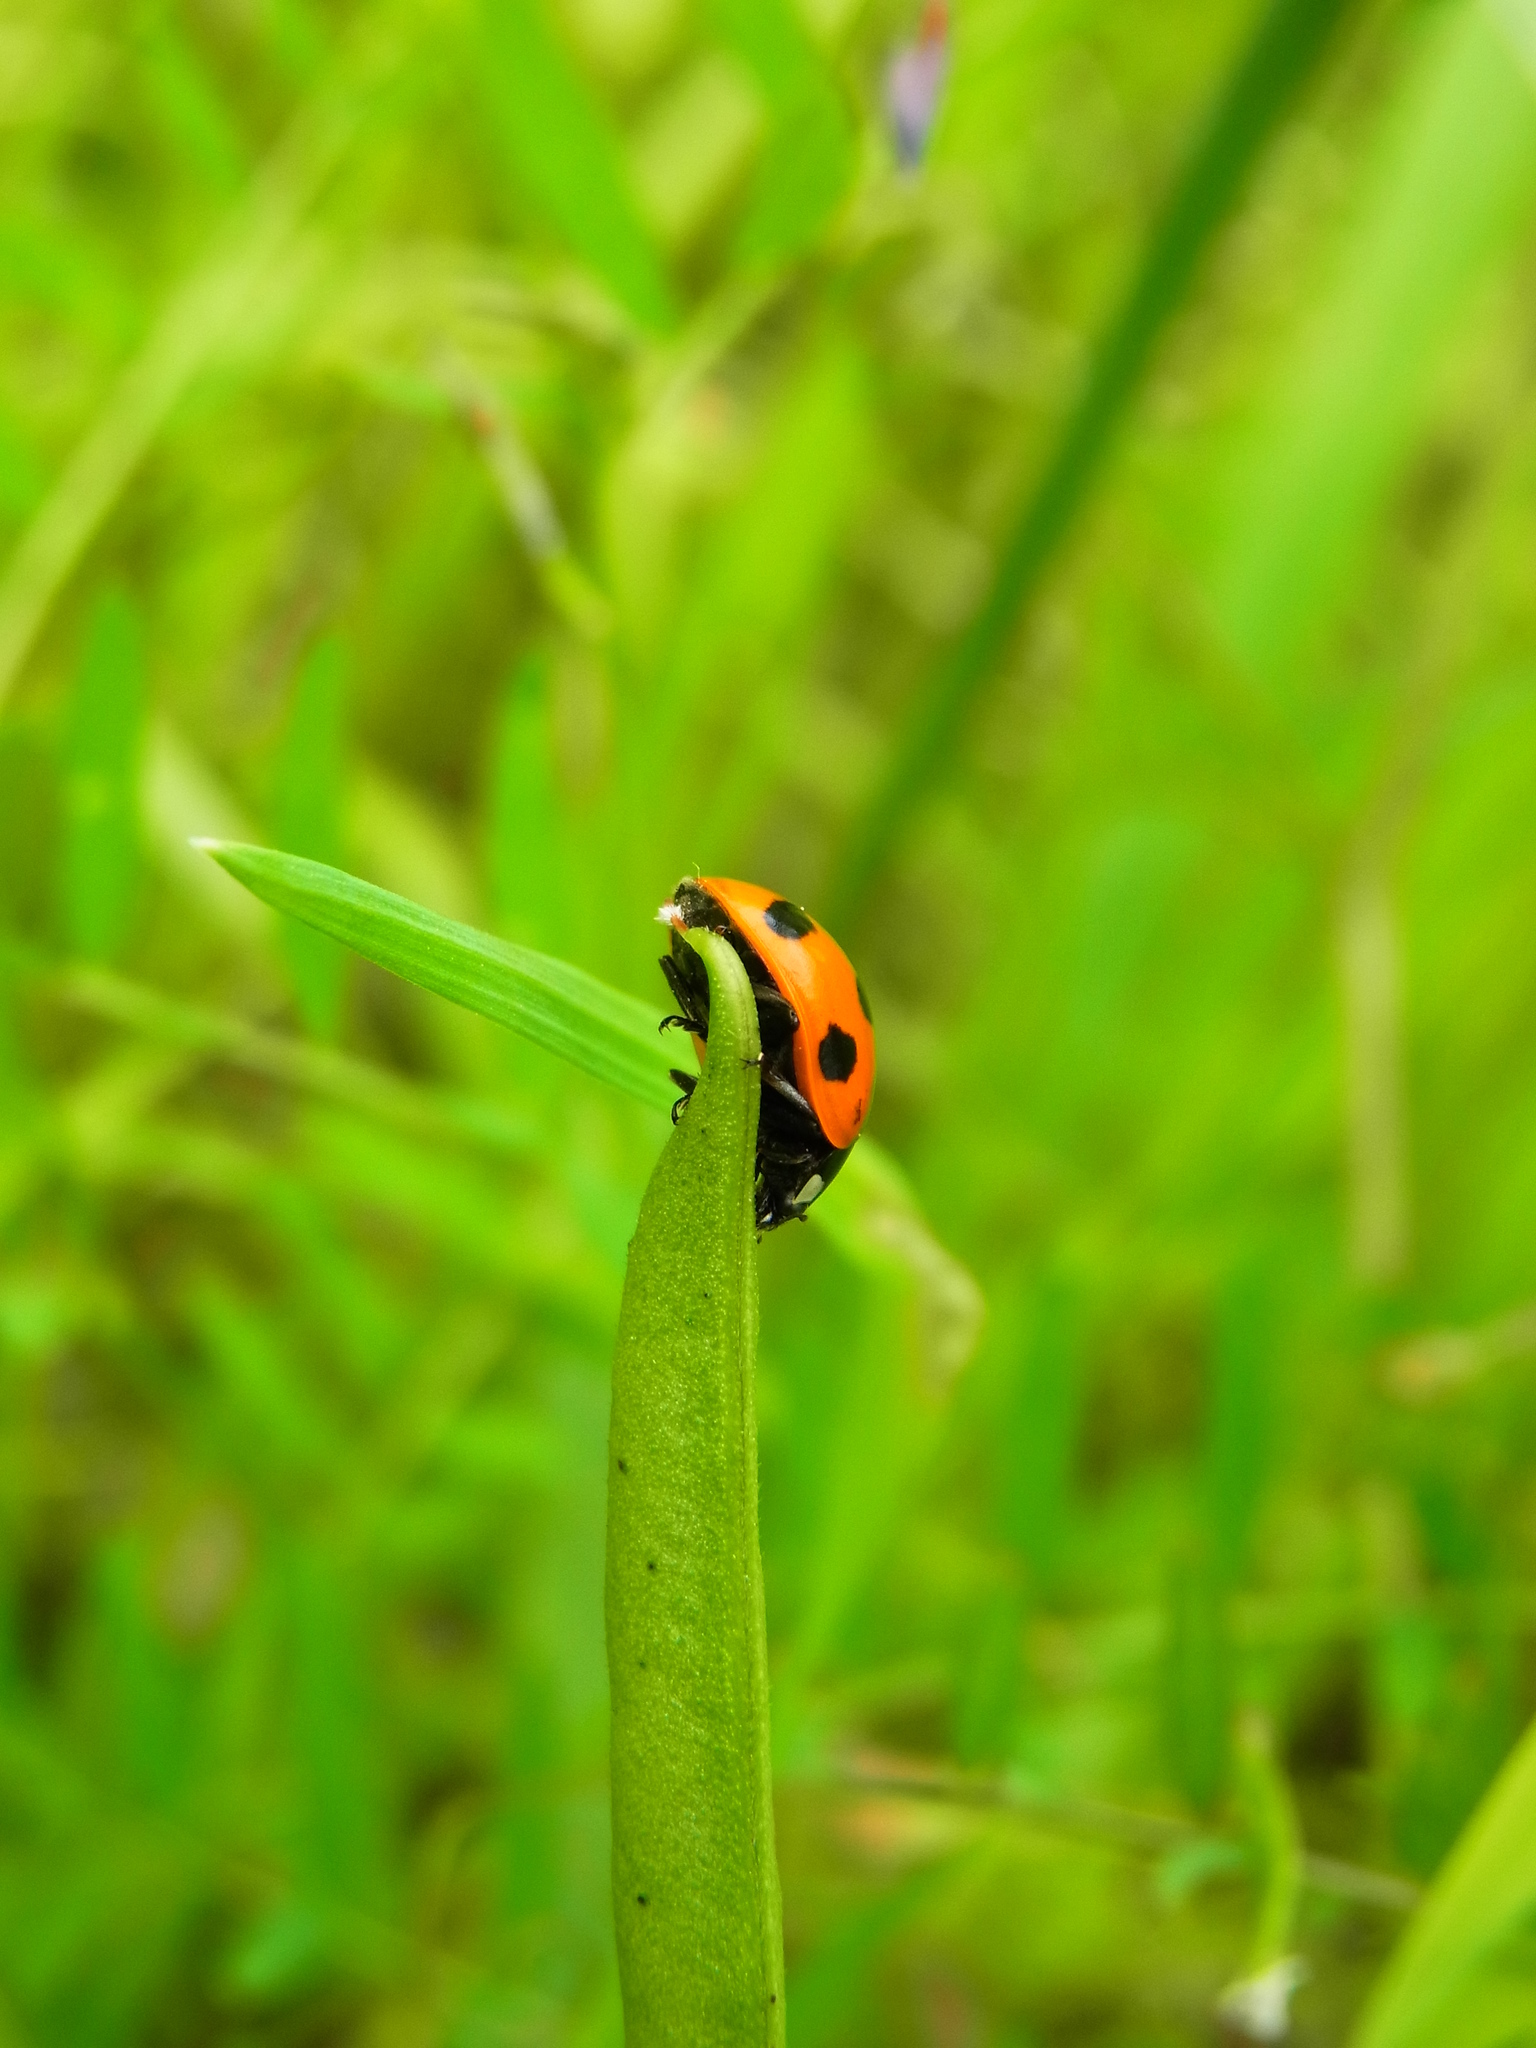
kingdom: Animalia
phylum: Arthropoda
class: Insecta
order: Coleoptera
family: Coccinellidae
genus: Coccinella
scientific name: Coccinella septempunctata
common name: Sevenspotted lady beetle
